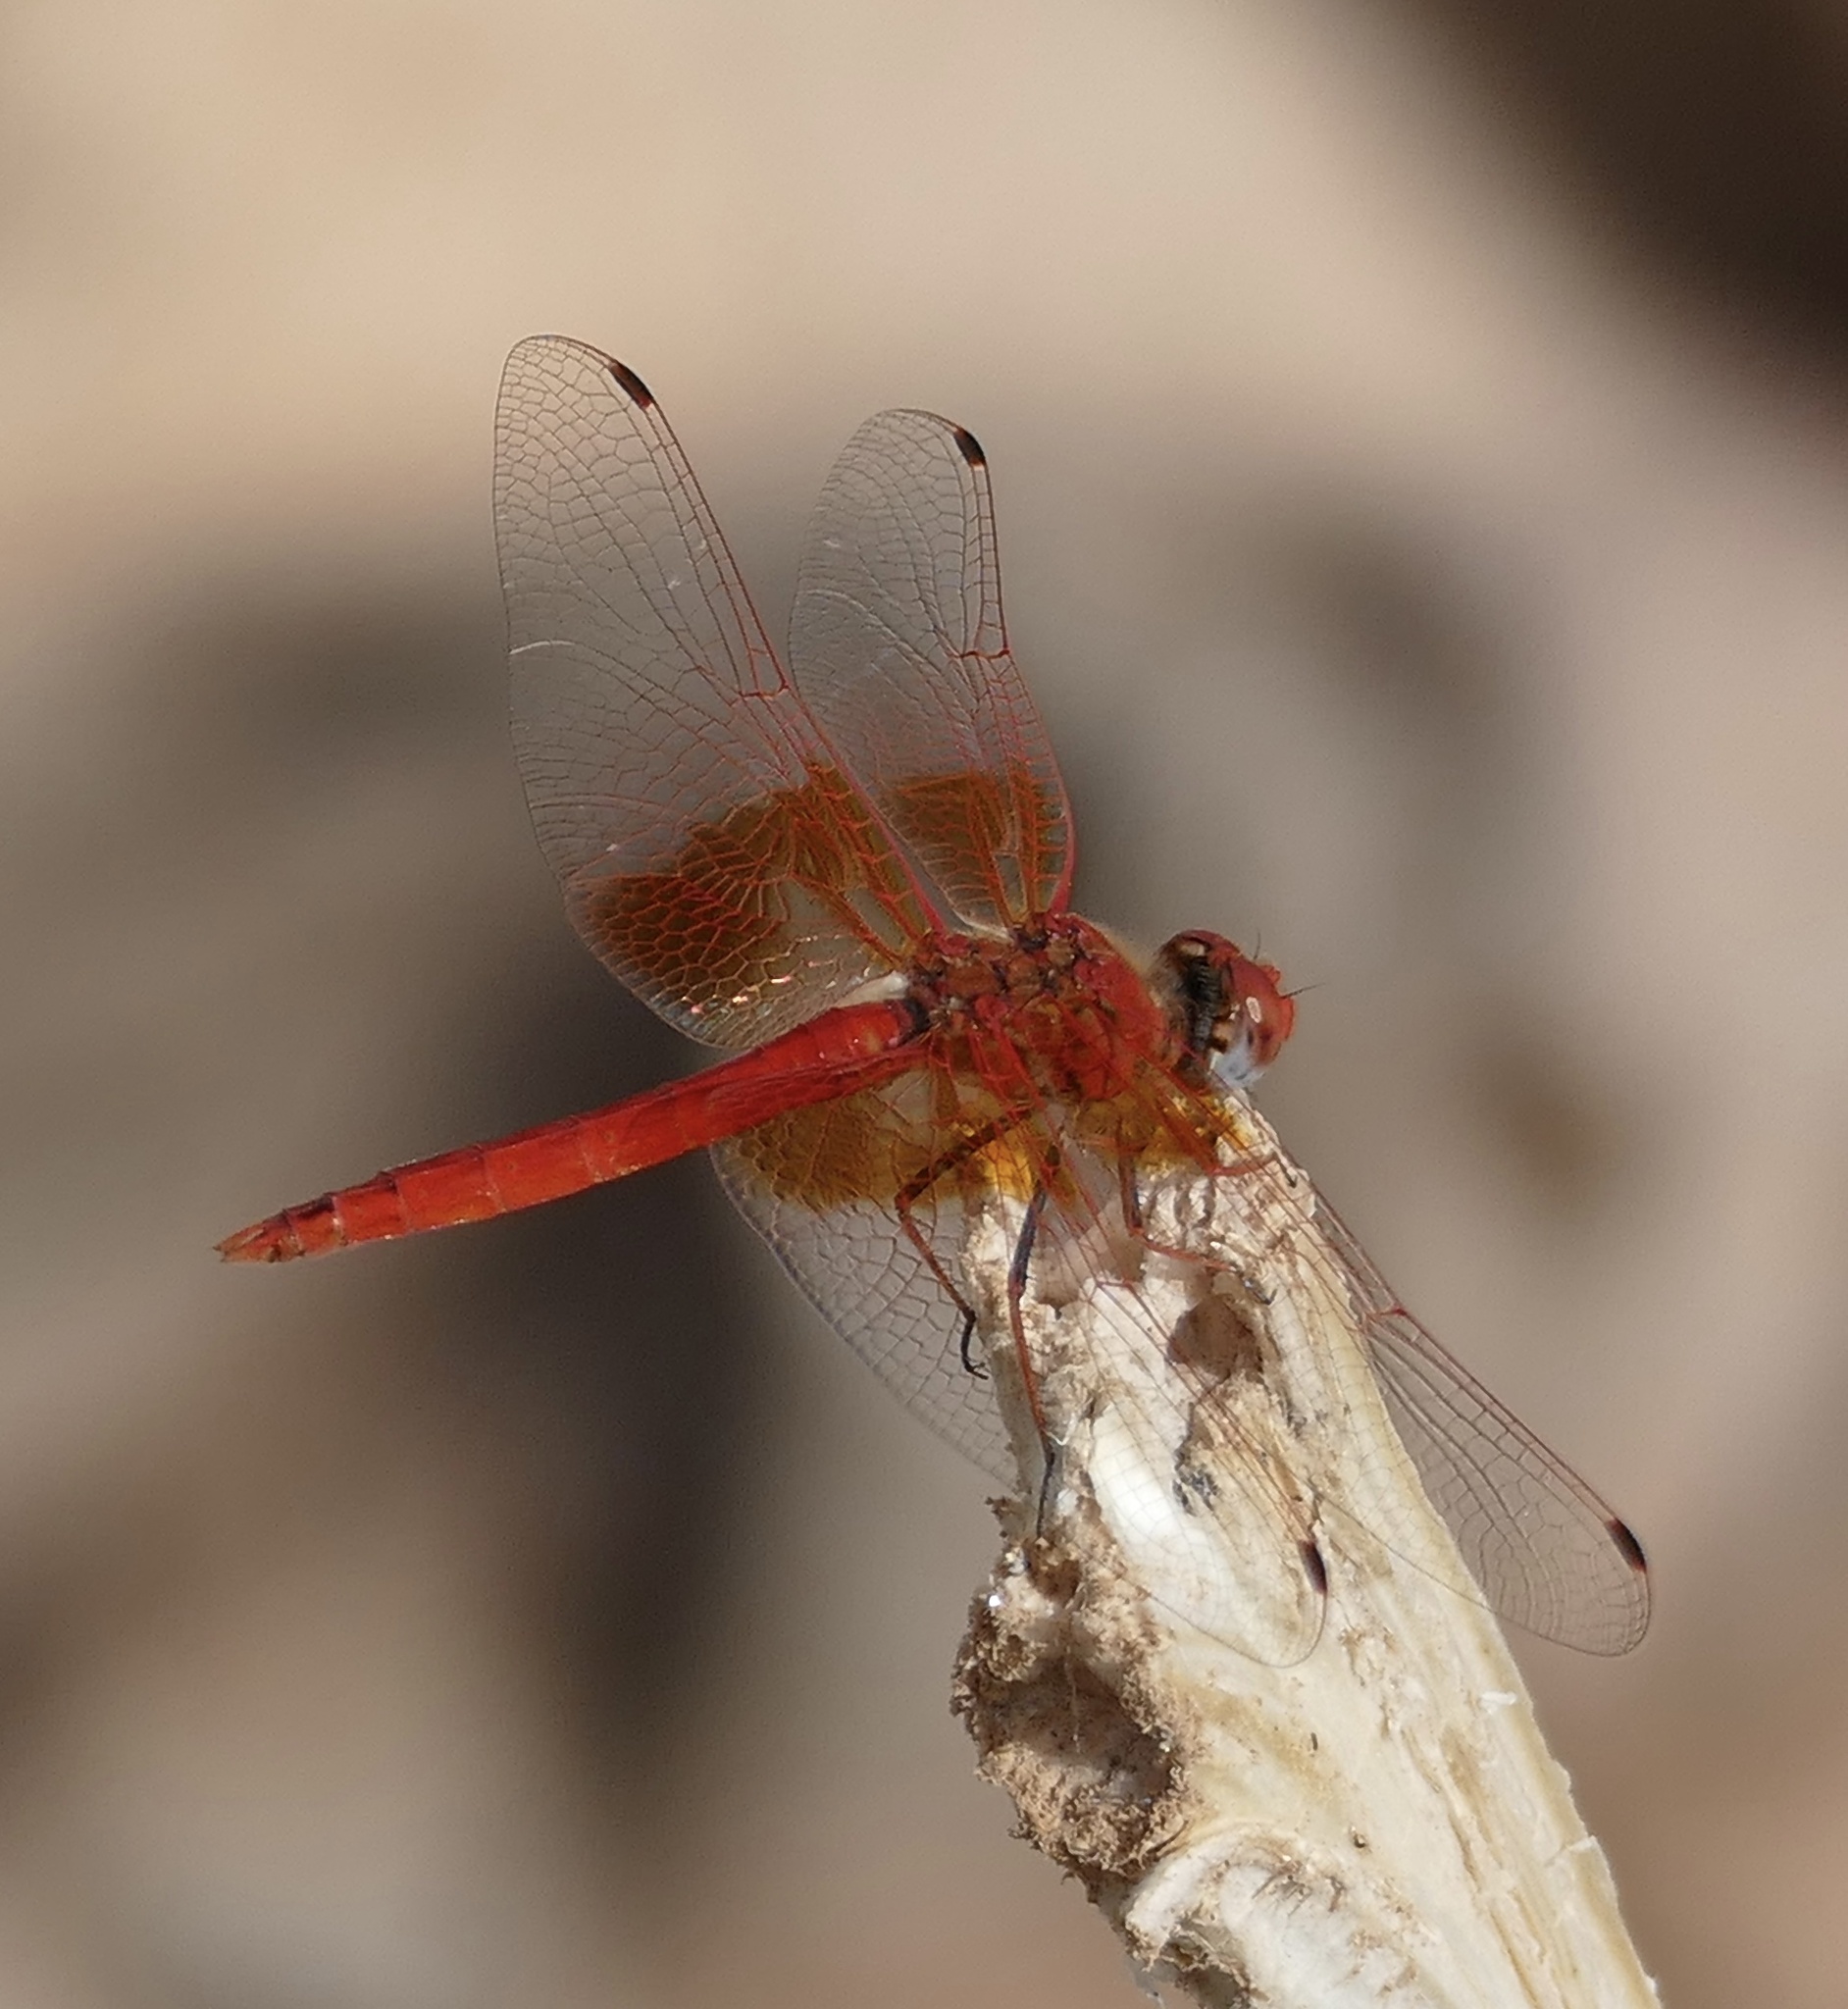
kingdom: Animalia
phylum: Arthropoda
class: Insecta
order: Odonata
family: Libellulidae
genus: Trithemis
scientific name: Trithemis kirbyi
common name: Kirby's dropwing
